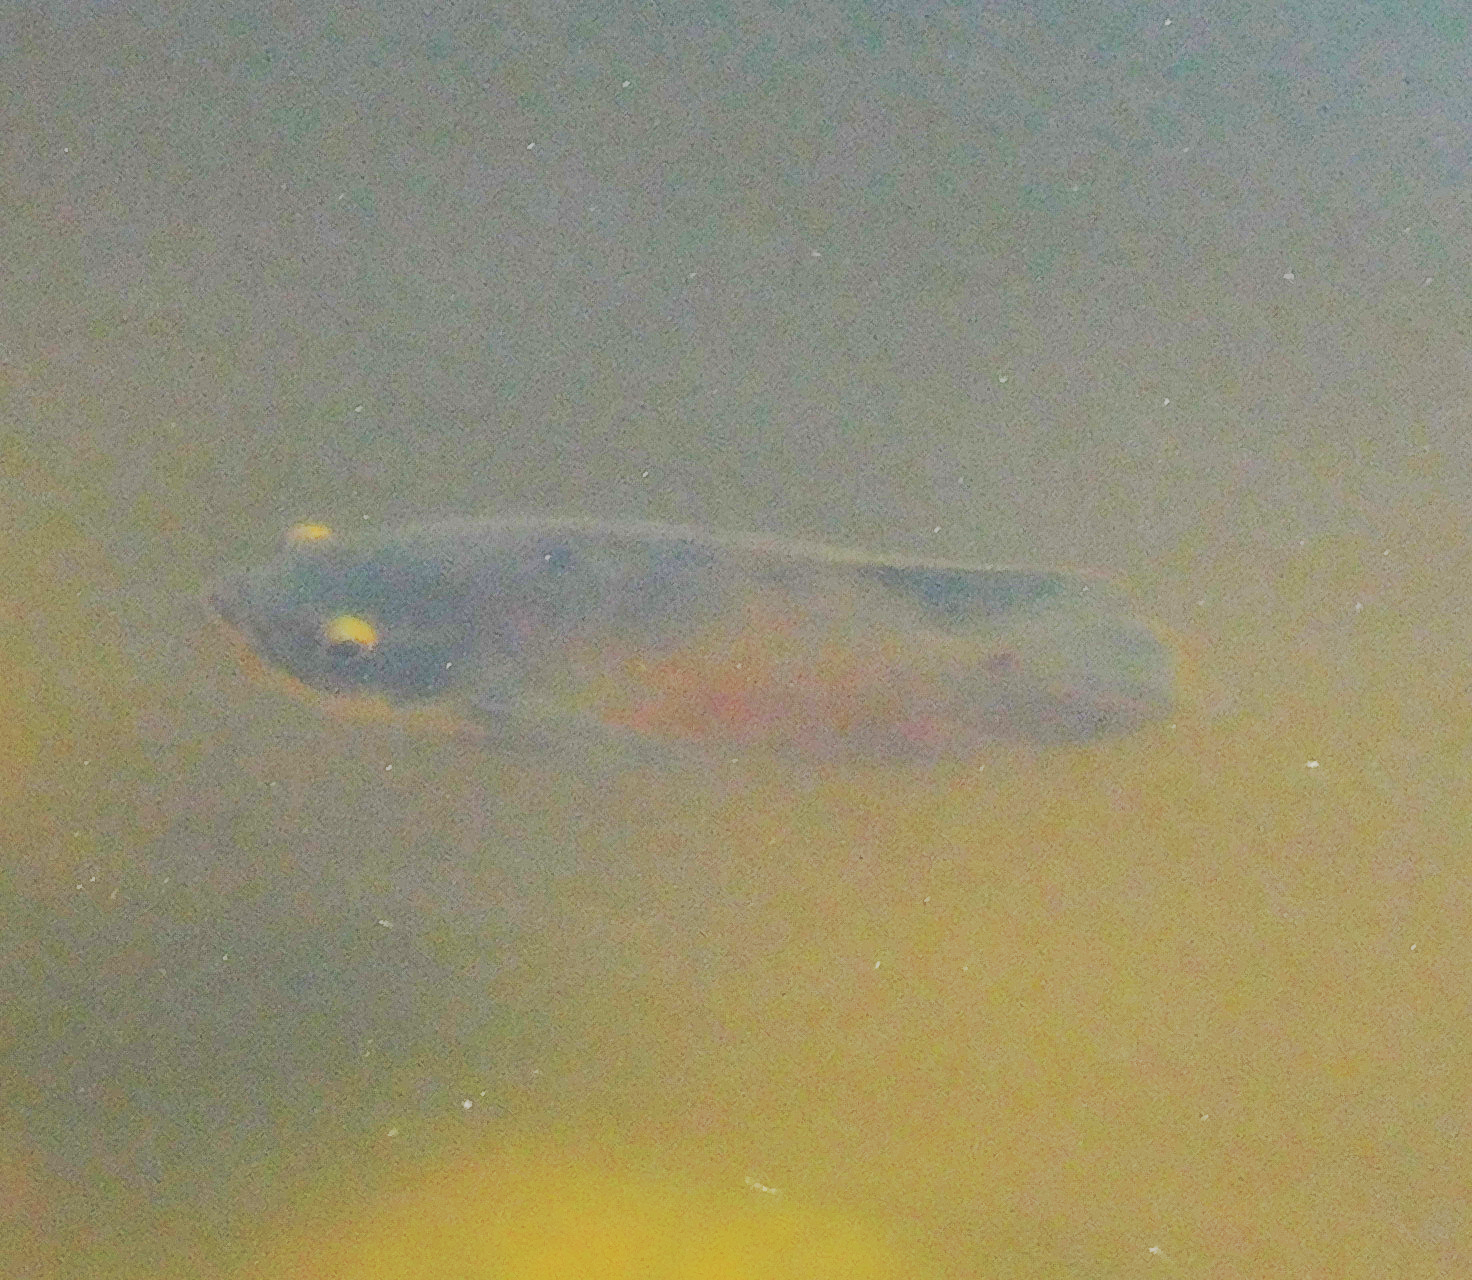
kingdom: Animalia
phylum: Chordata
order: Perciformes
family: Cichlidae
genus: Astronotus
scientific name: Astronotus ocellatus
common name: Oscar
